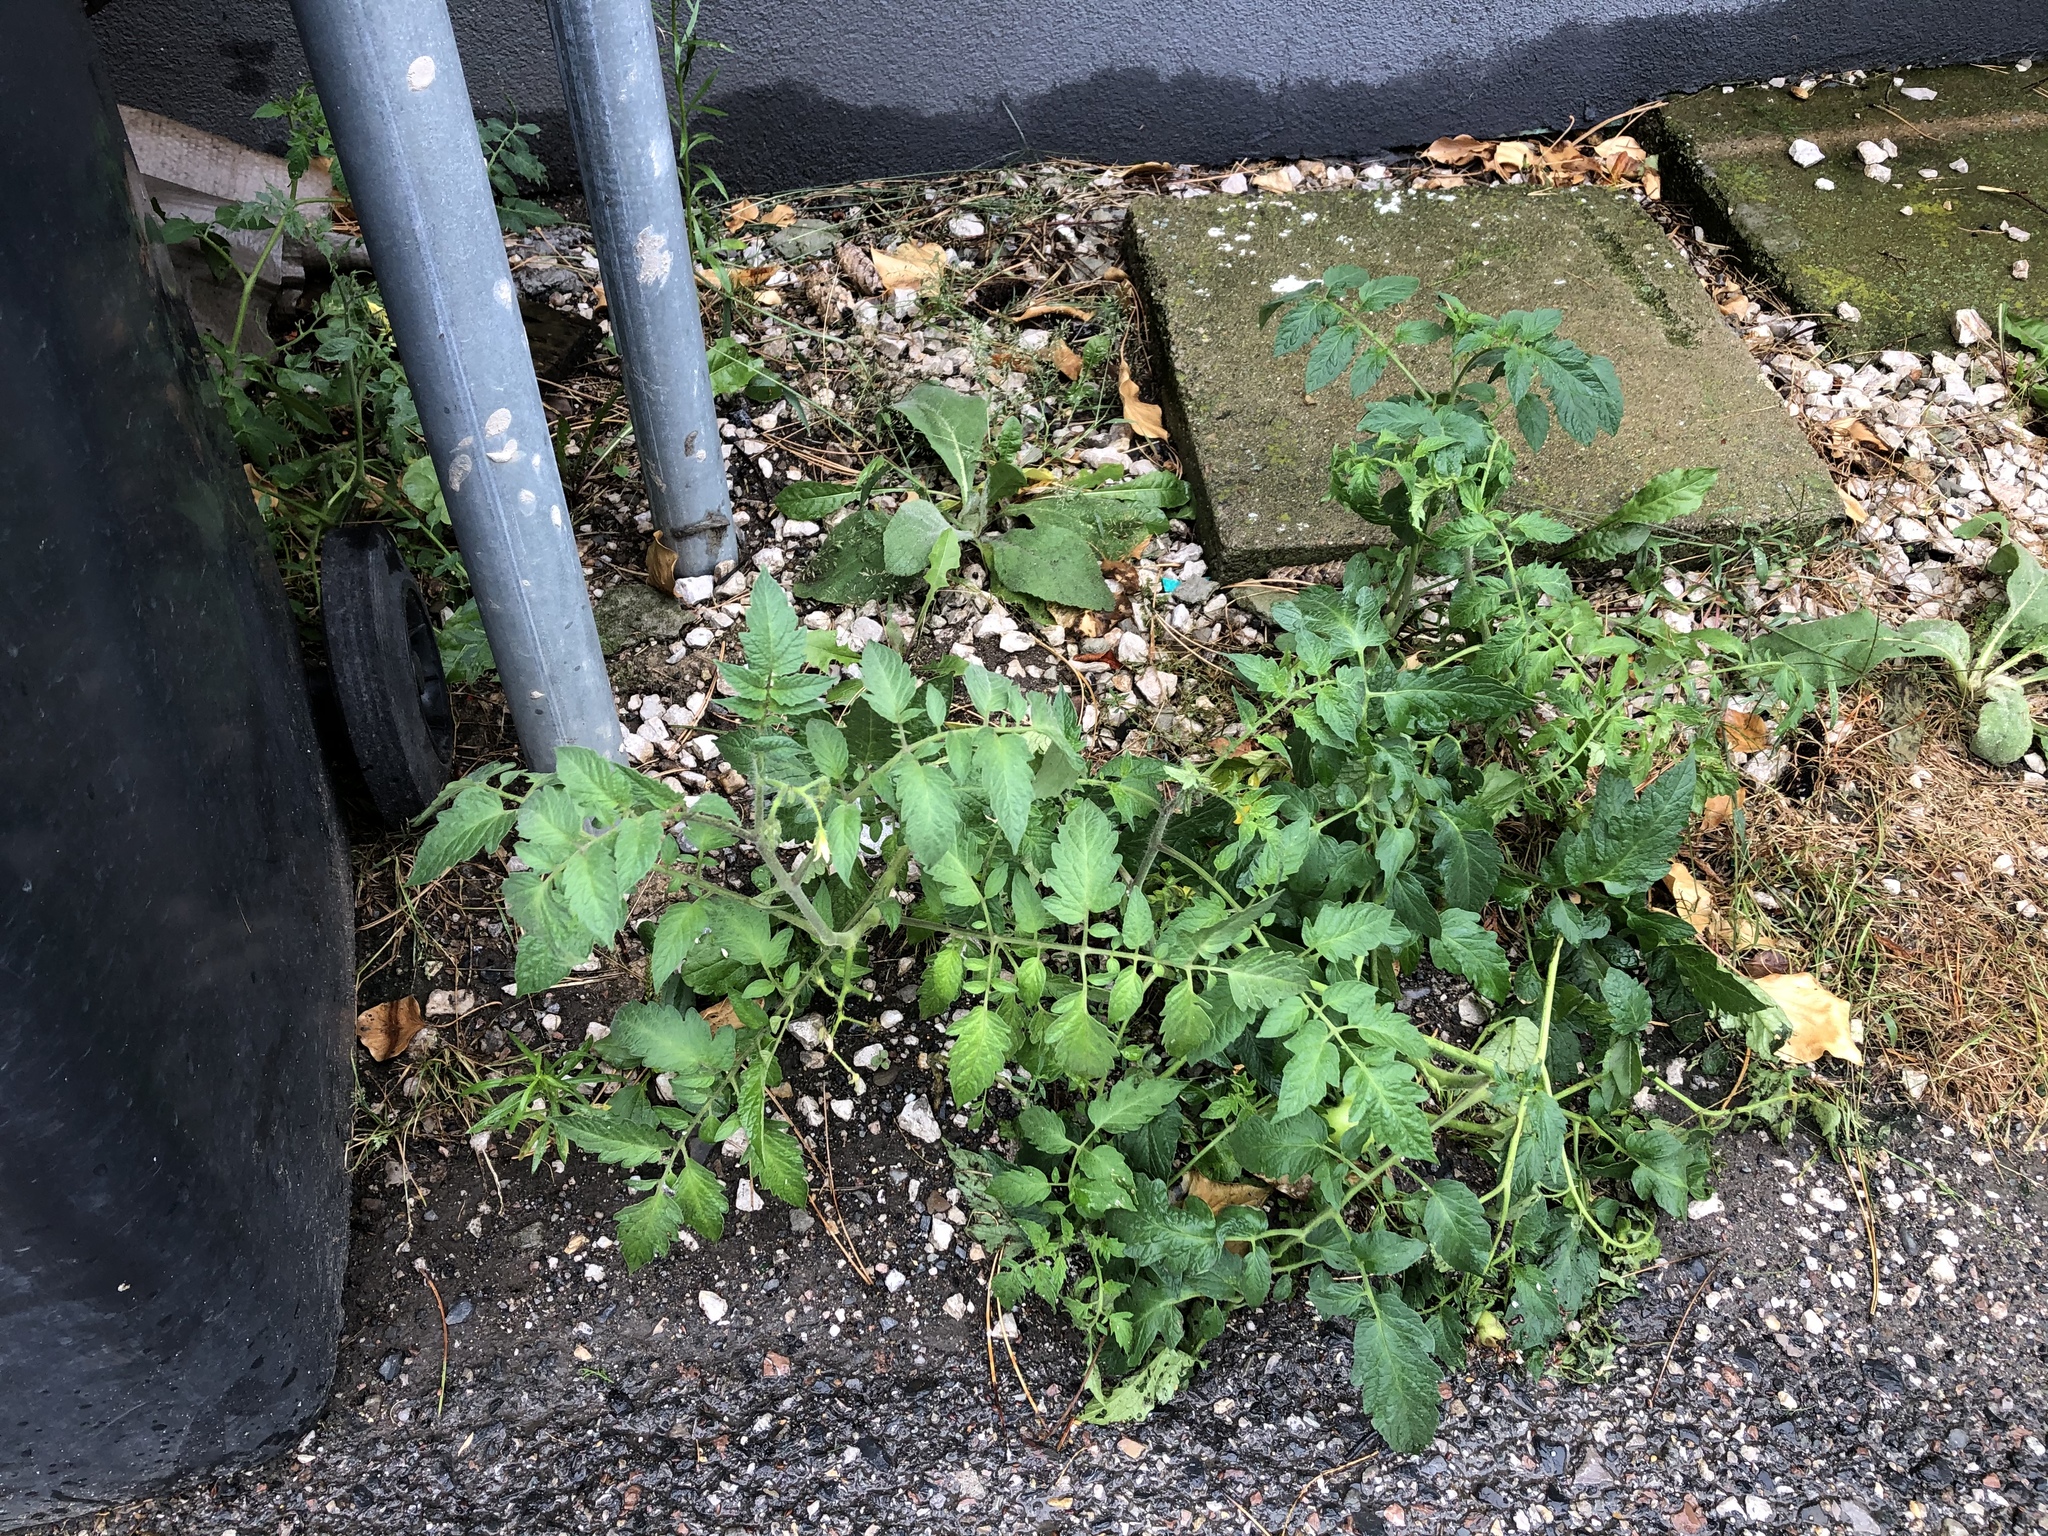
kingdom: Plantae
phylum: Tracheophyta
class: Magnoliopsida
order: Solanales
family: Solanaceae
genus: Solanum
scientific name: Solanum lycopersicum
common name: Garden tomato
